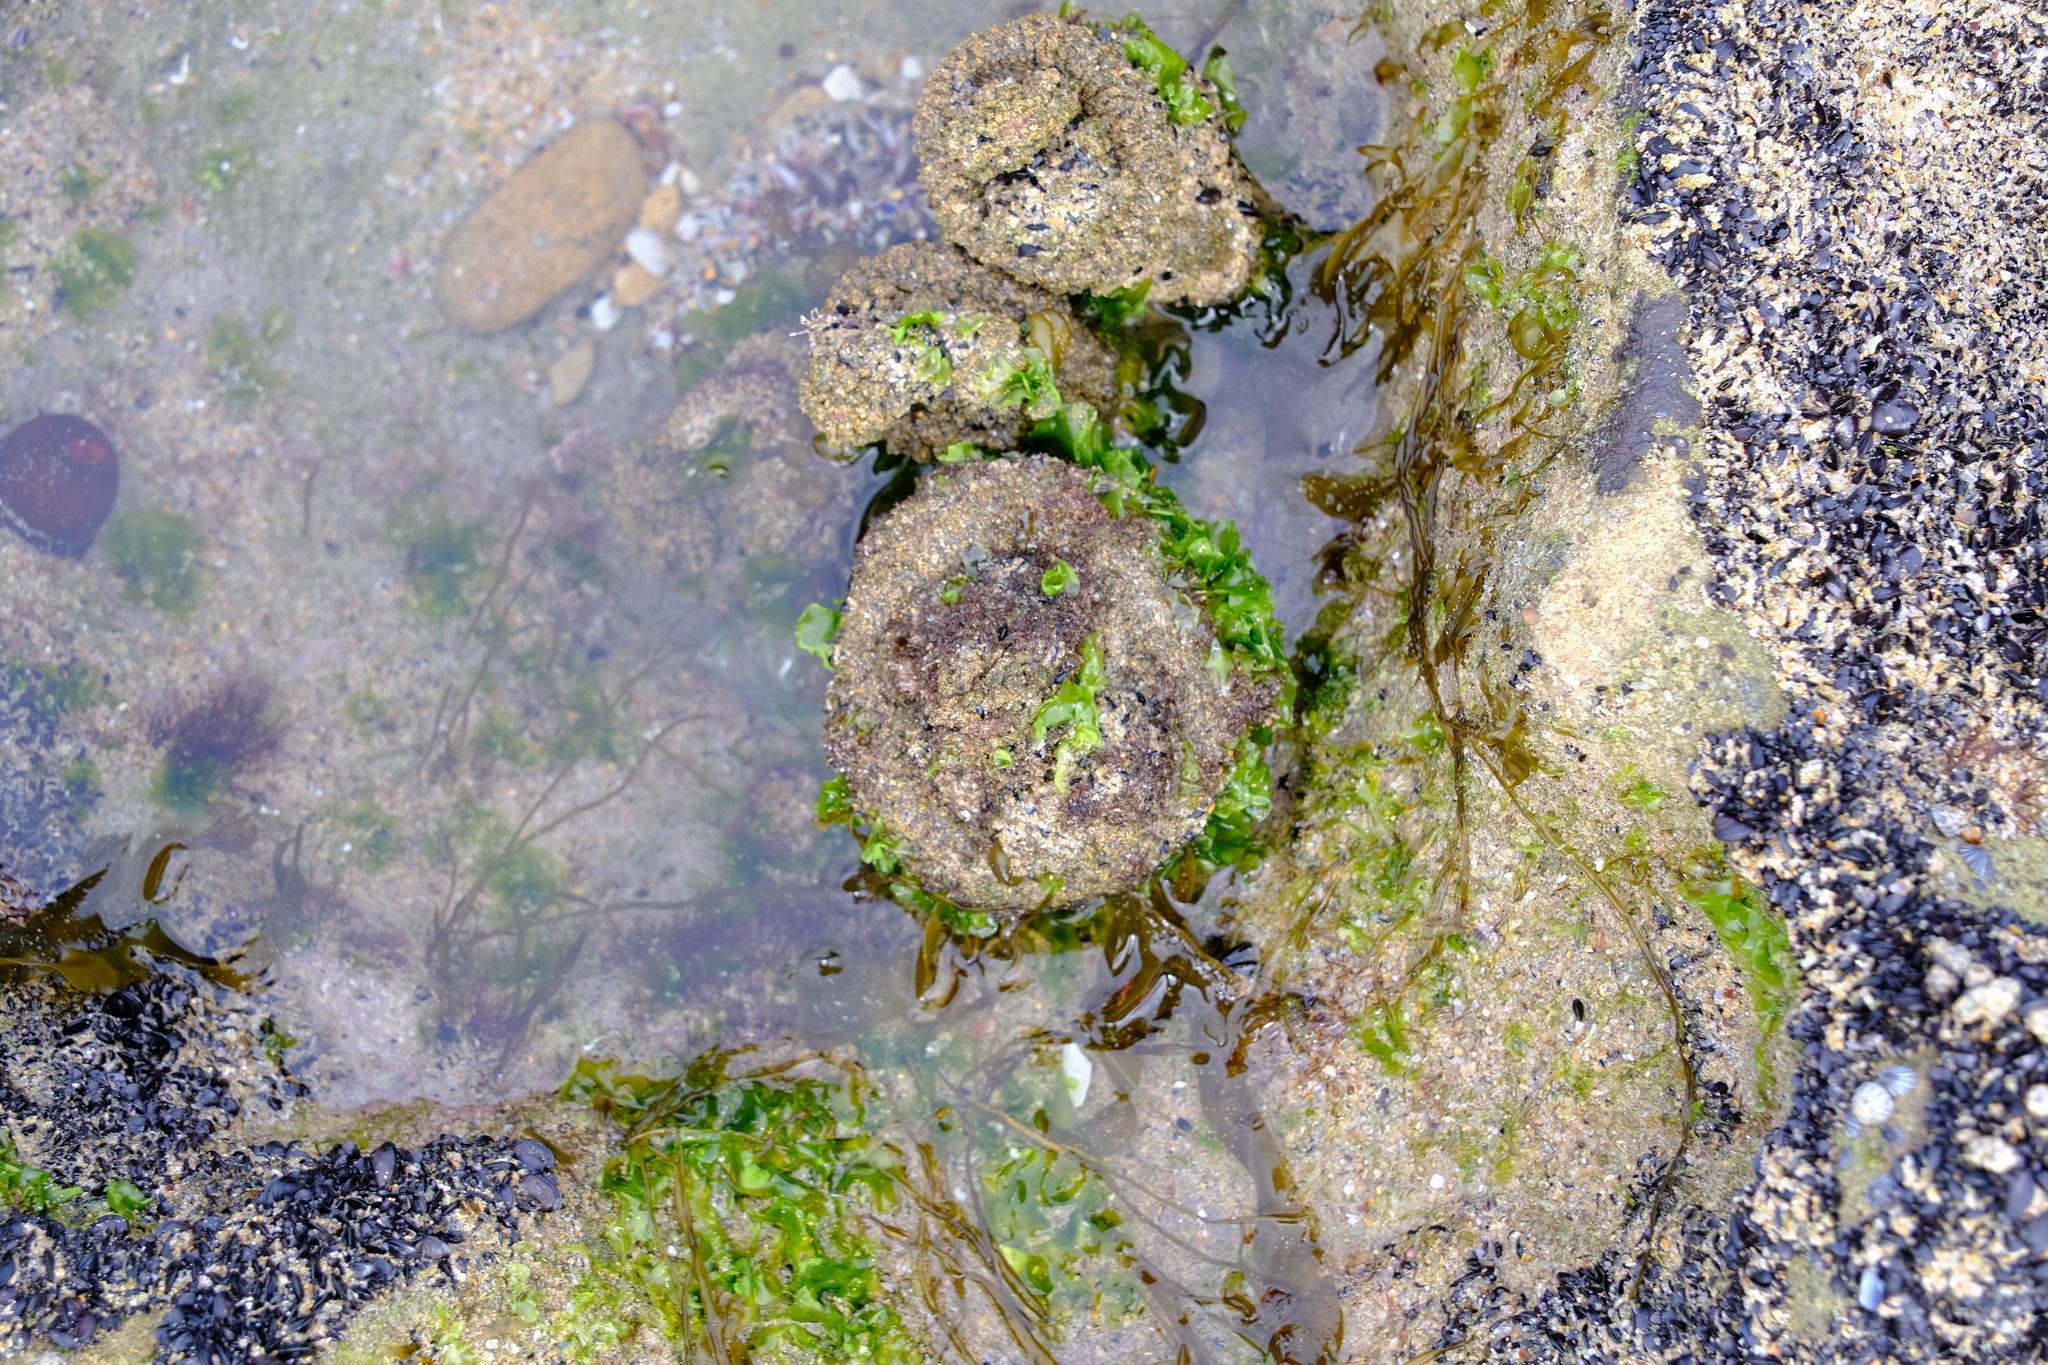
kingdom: Animalia
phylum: Chordata
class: Ascidiacea
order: Stolidobranchia
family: Pyuridae
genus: Pyura
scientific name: Pyura praeputialis
